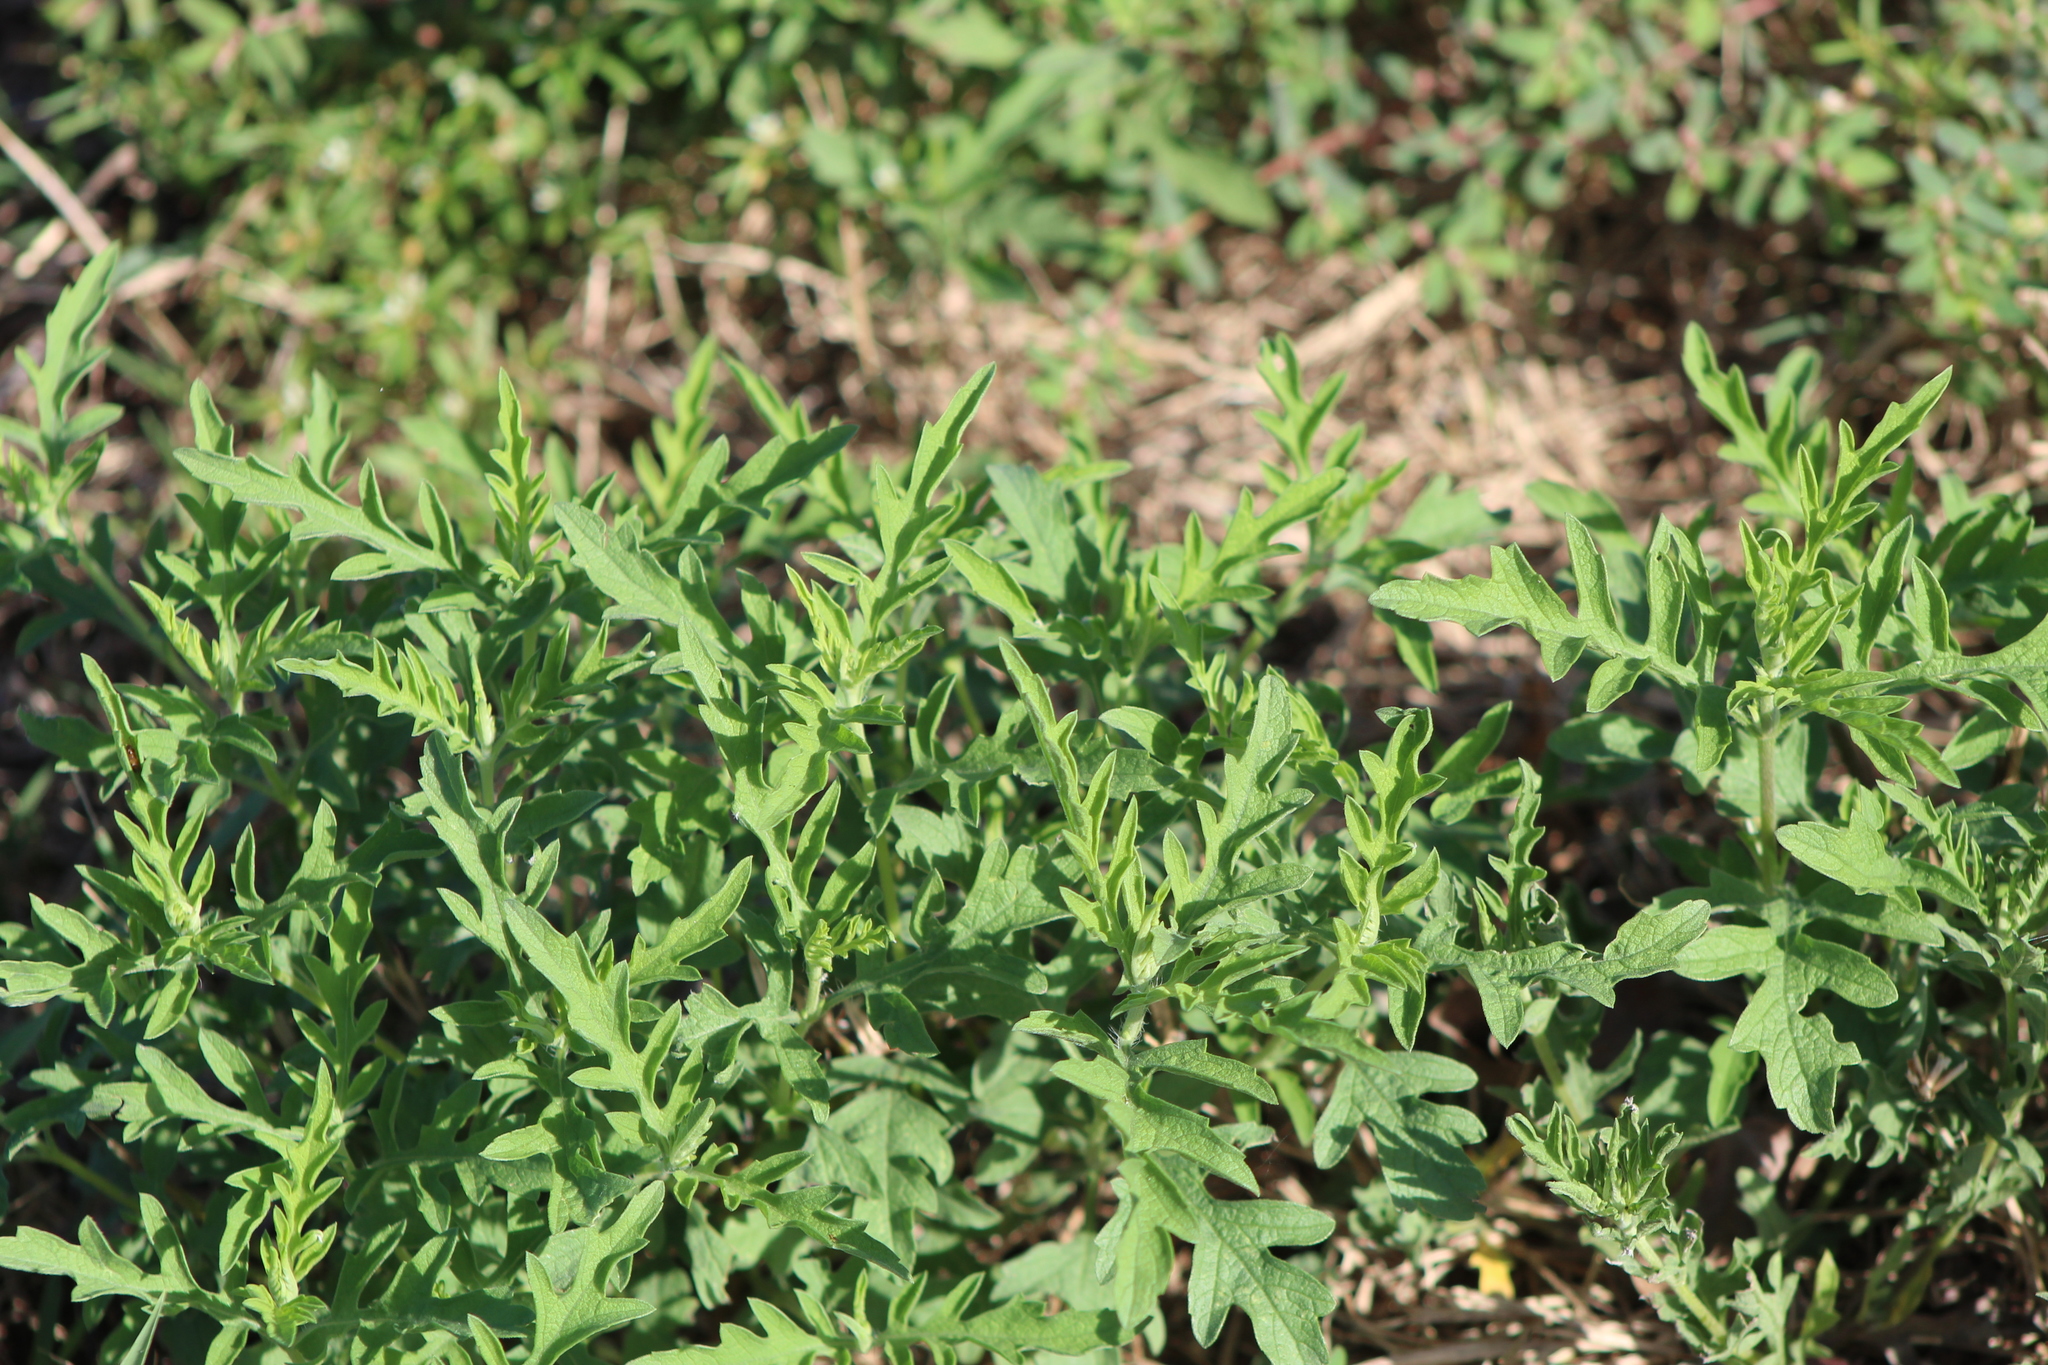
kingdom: Plantae
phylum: Tracheophyta
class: Magnoliopsida
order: Asterales
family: Asteraceae
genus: Ambrosia
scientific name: Ambrosia psilostachya
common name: Perennial ragweed
